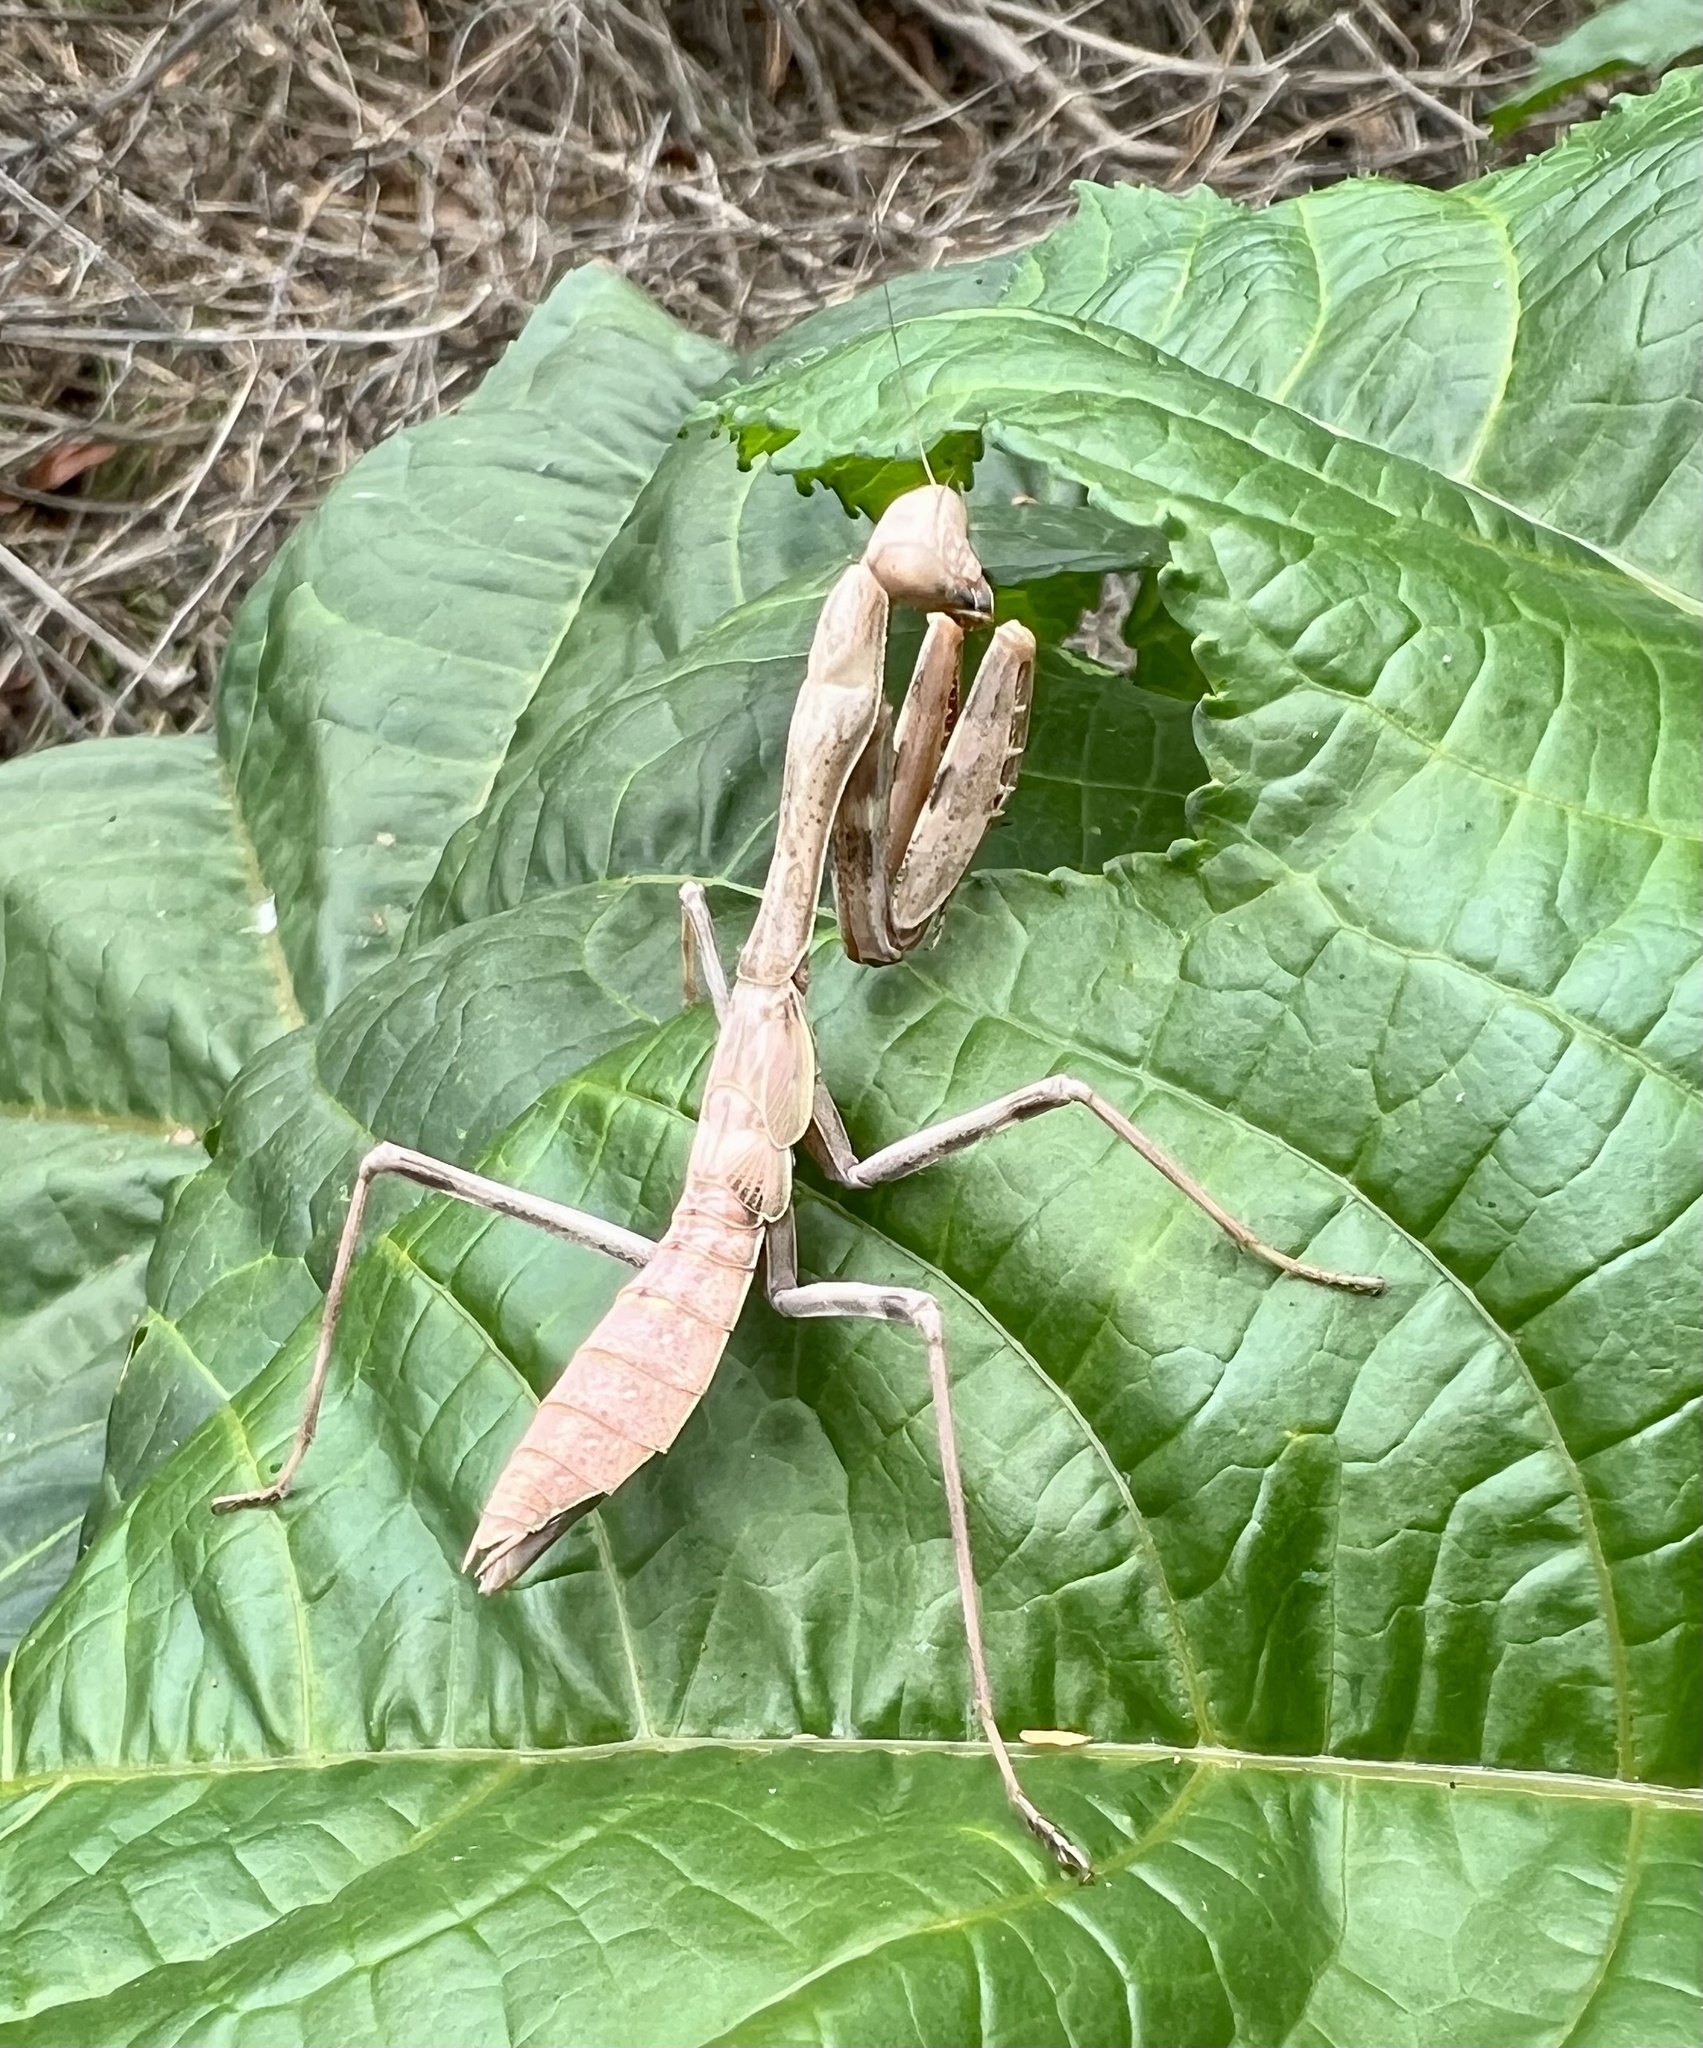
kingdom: Animalia
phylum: Arthropoda
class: Insecta
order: Mantodea
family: Mantidae
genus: Stagmomantis
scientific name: Stagmomantis limbata
